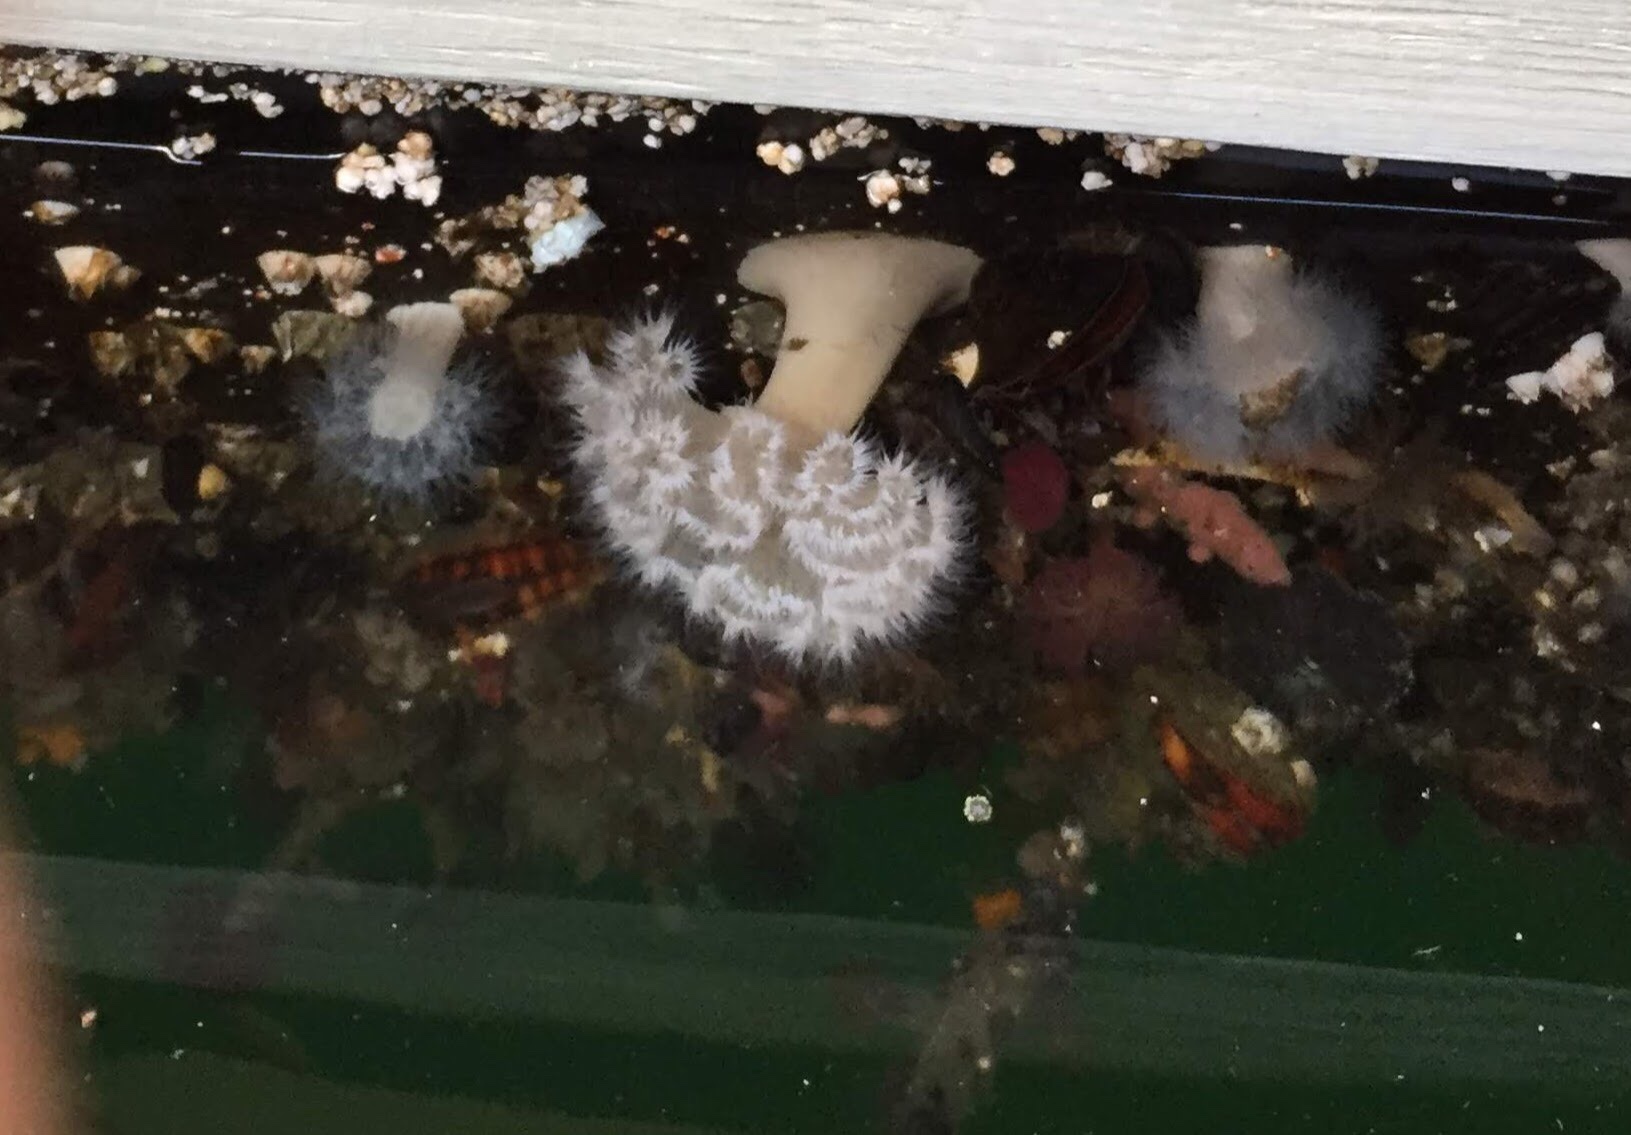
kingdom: Animalia
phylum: Cnidaria
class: Anthozoa
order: Actiniaria
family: Metridiidae
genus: Metridium
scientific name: Metridium farcimen
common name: Gigantic anemone
